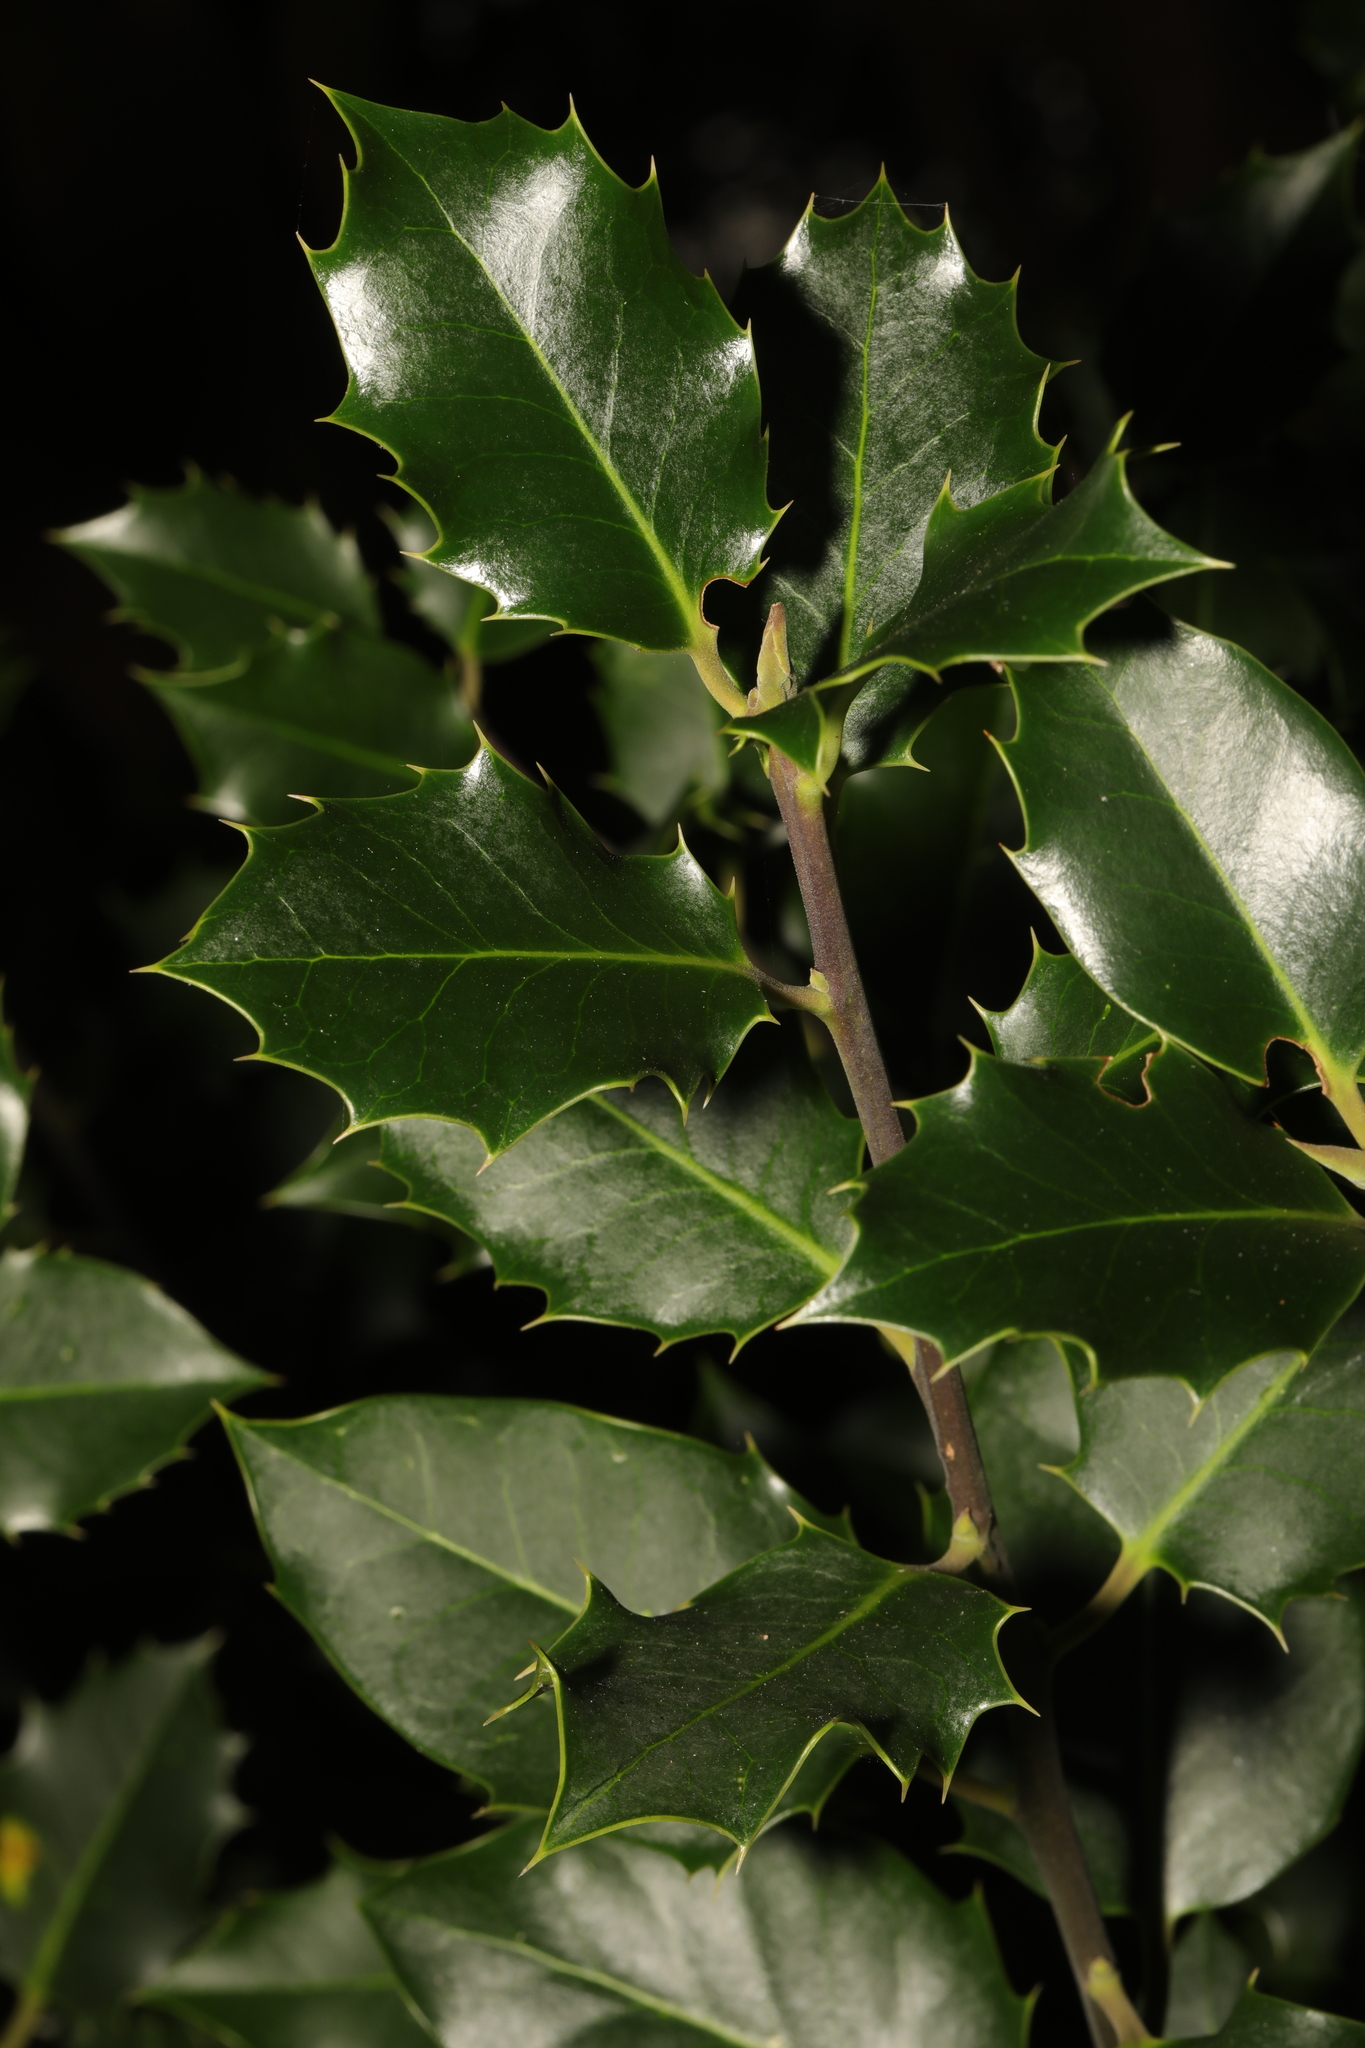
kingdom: Plantae
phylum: Tracheophyta
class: Magnoliopsida
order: Aquifoliales
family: Aquifoliaceae
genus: Ilex
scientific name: Ilex aquifolium
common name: English holly
